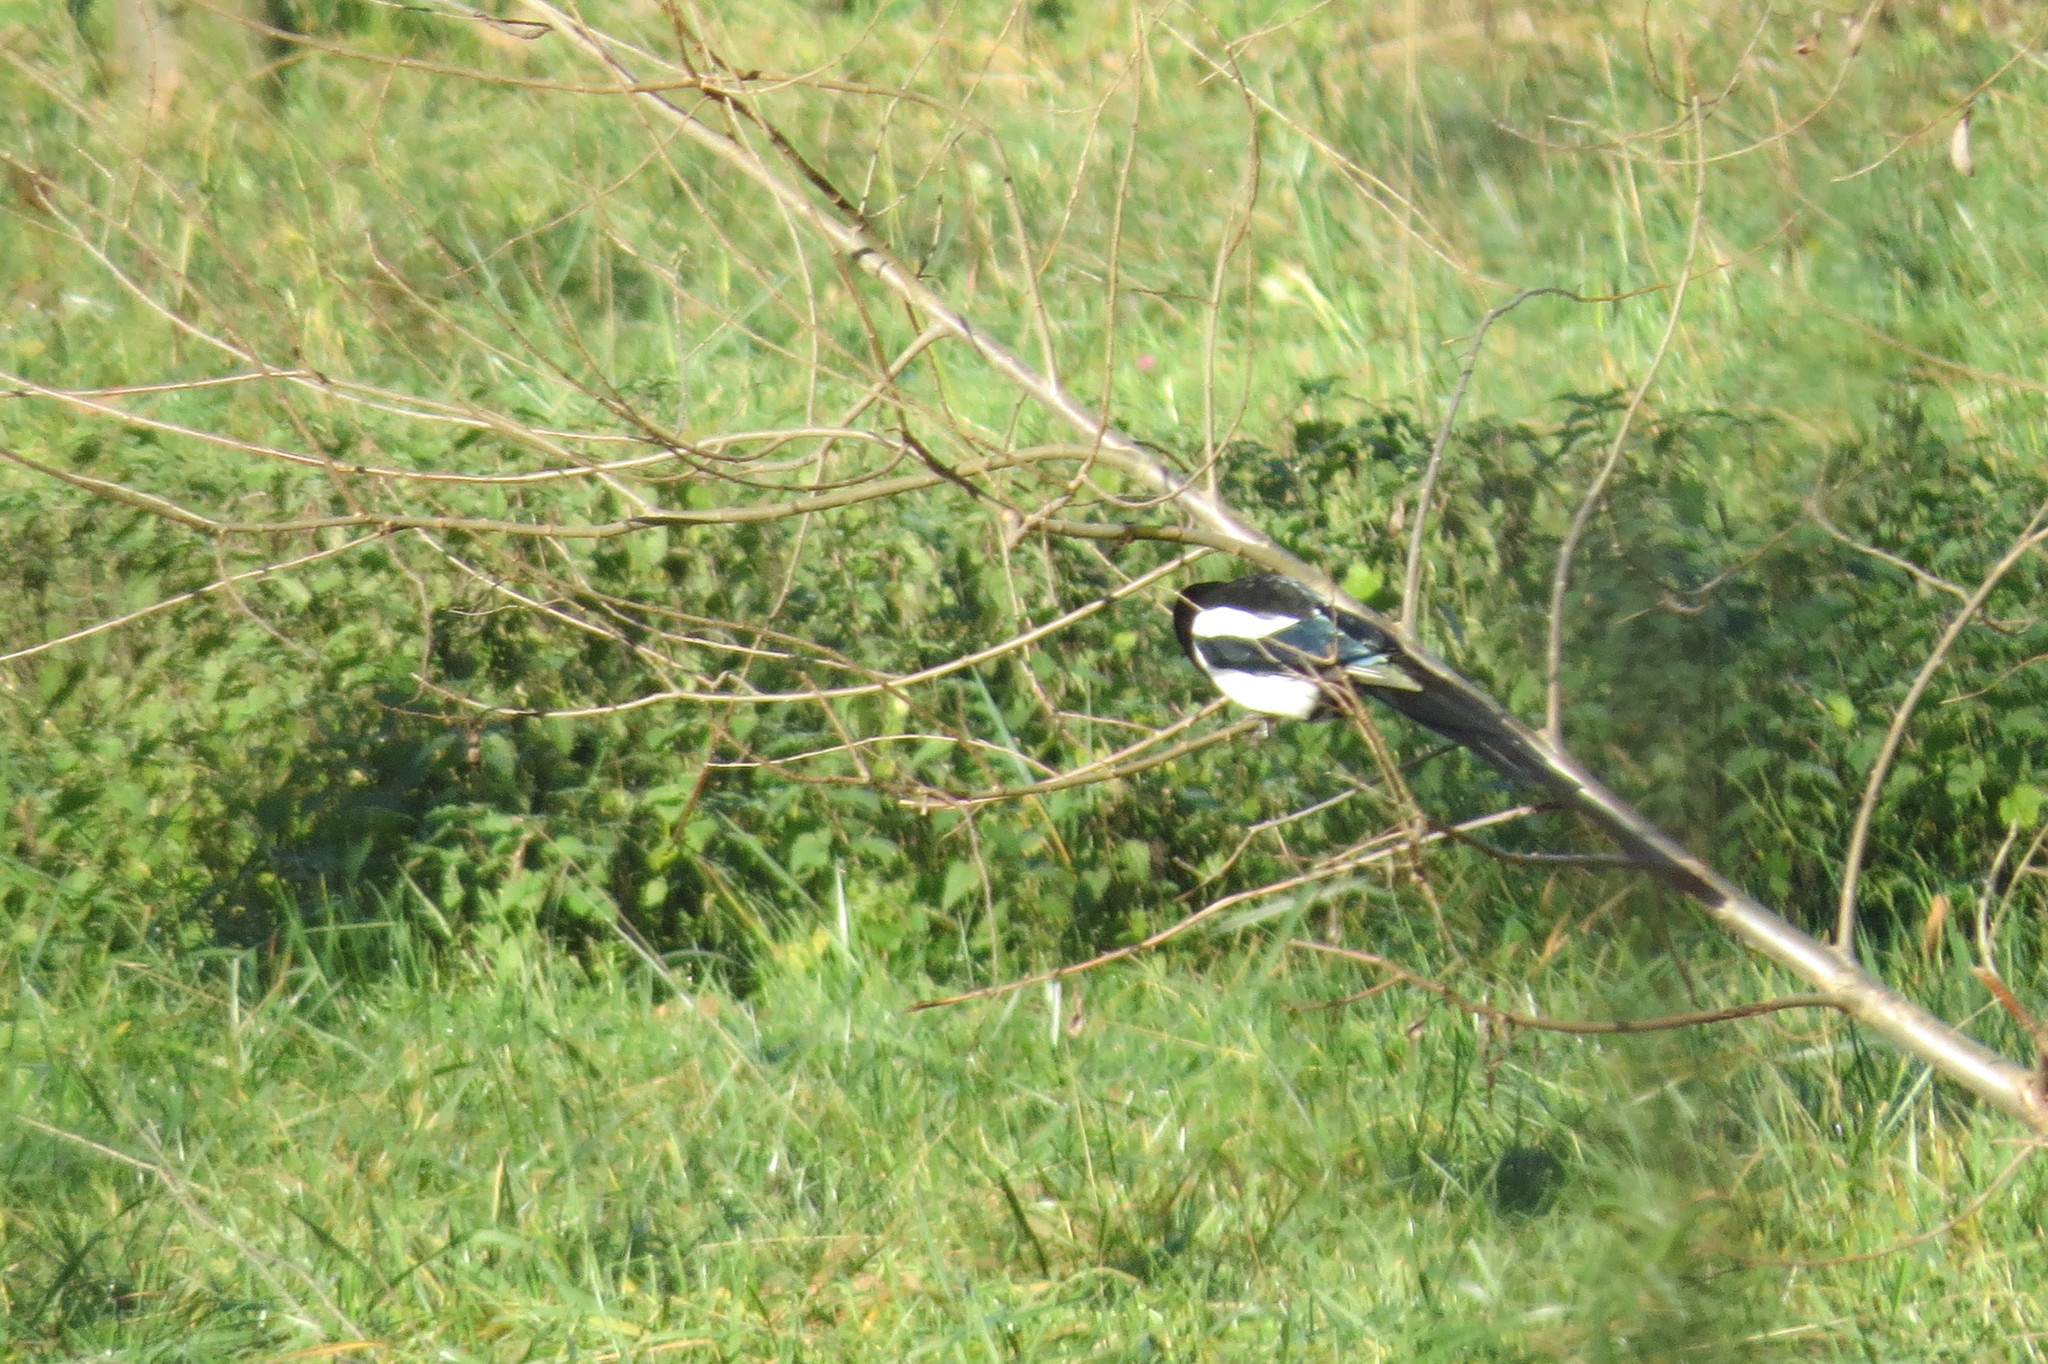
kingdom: Animalia
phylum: Chordata
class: Aves
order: Passeriformes
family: Corvidae
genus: Pica
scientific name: Pica pica
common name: Eurasian magpie
